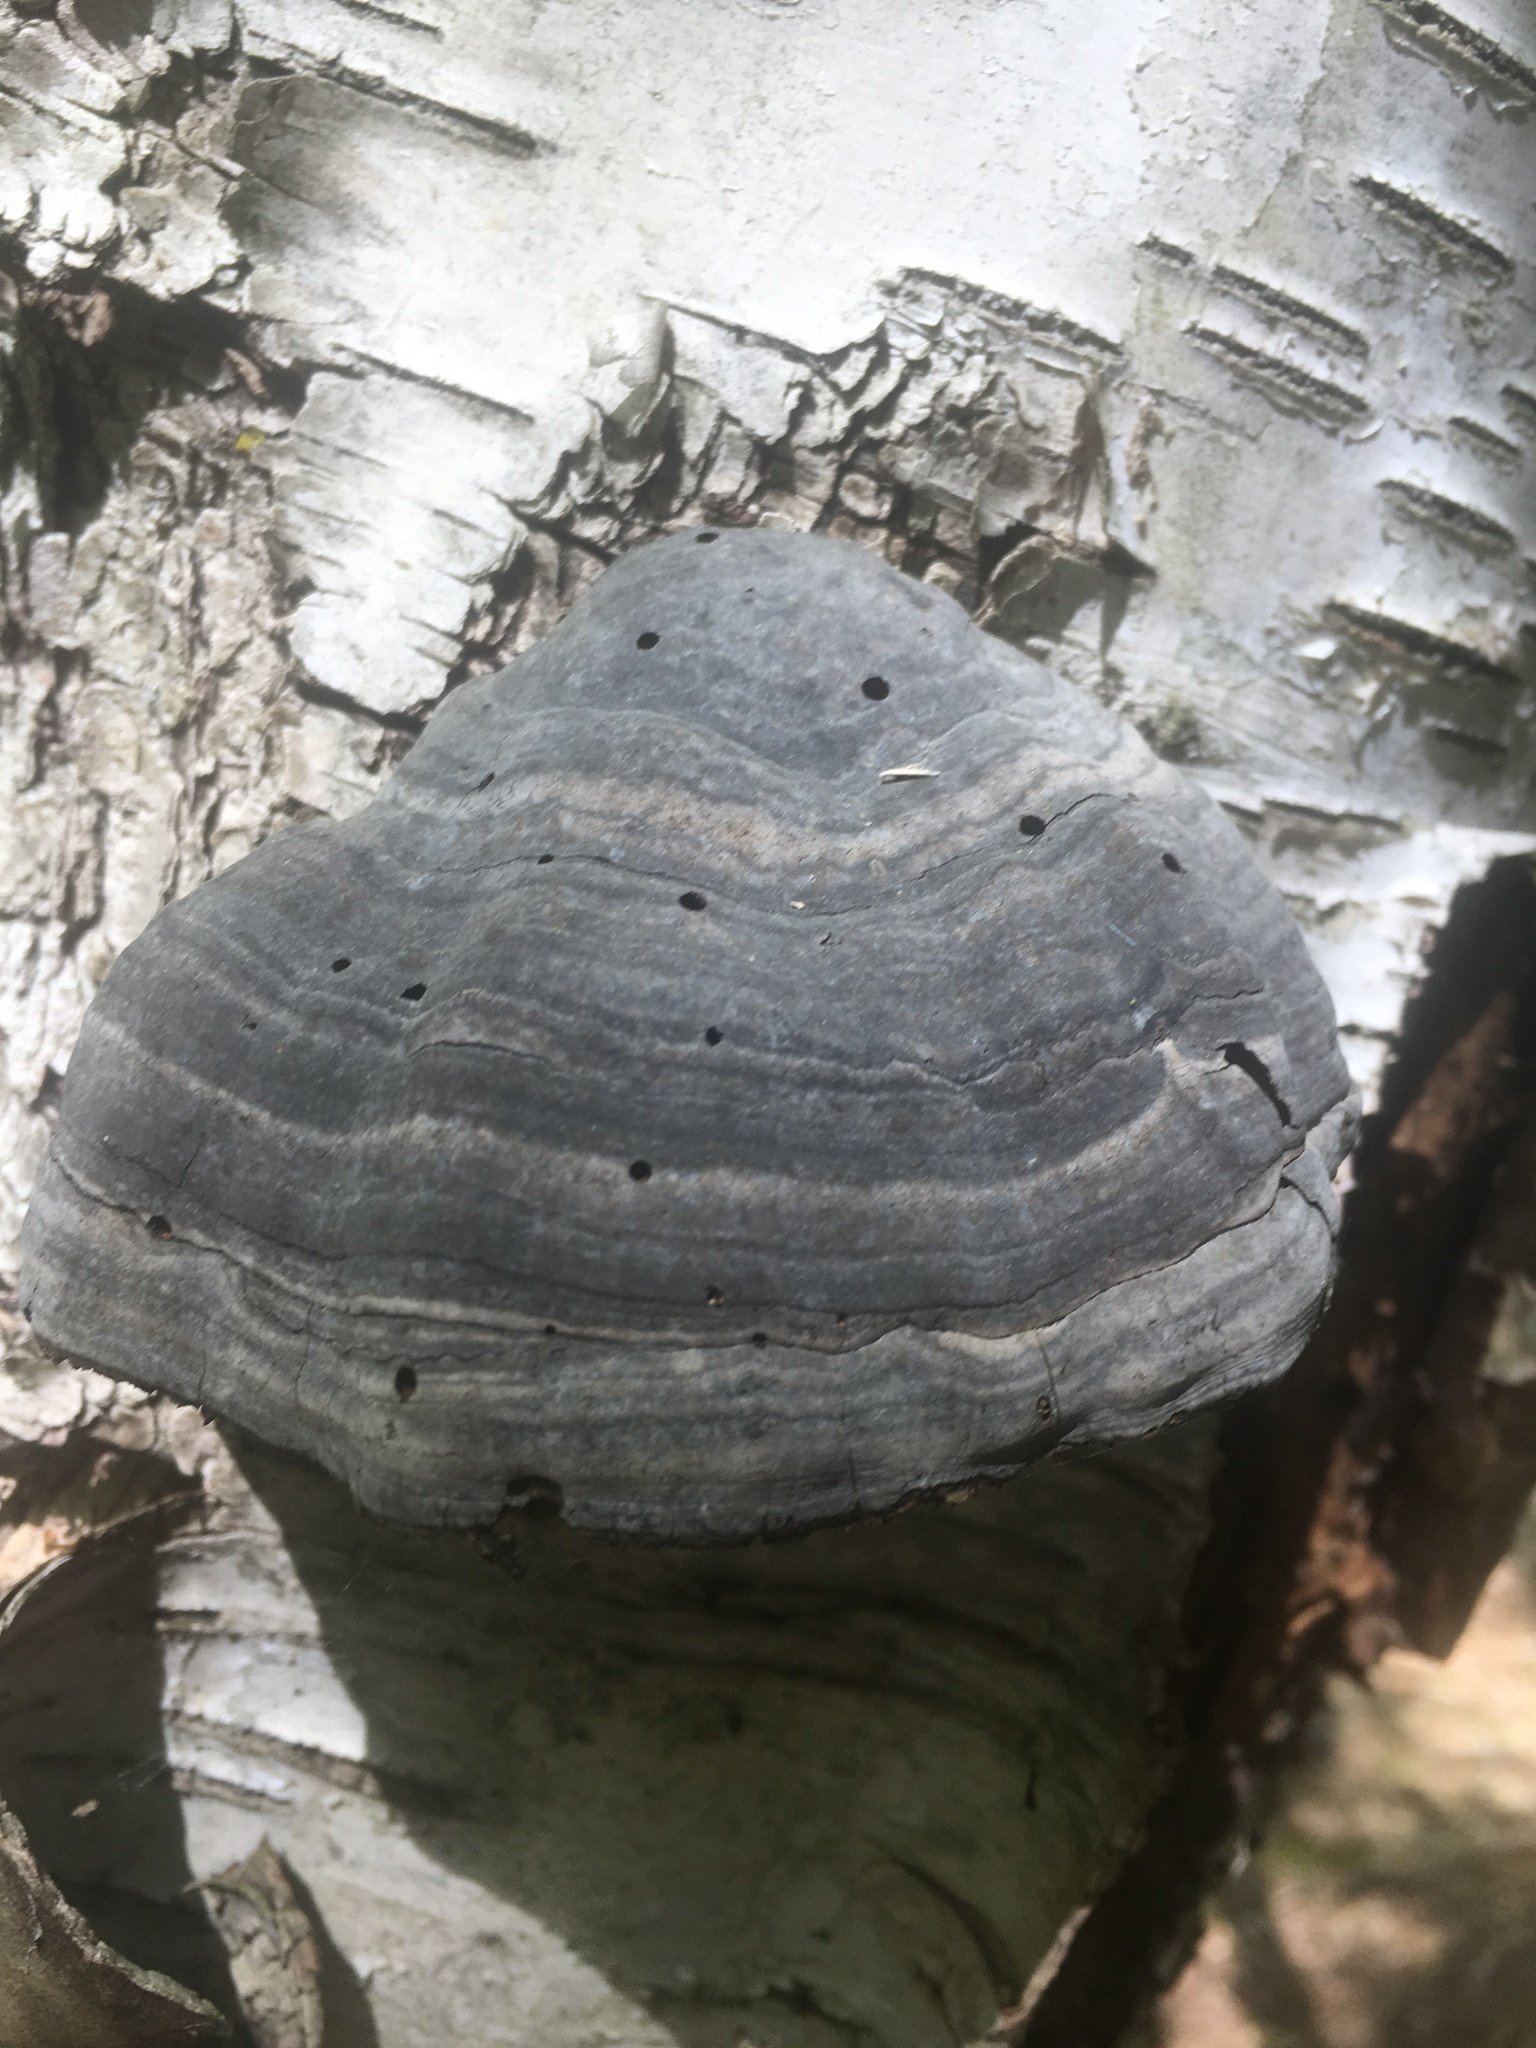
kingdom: Fungi
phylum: Basidiomycota
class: Agaricomycetes
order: Polyporales
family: Polyporaceae
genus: Fomes
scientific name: Fomes fomentarius
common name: Hoof fungus
